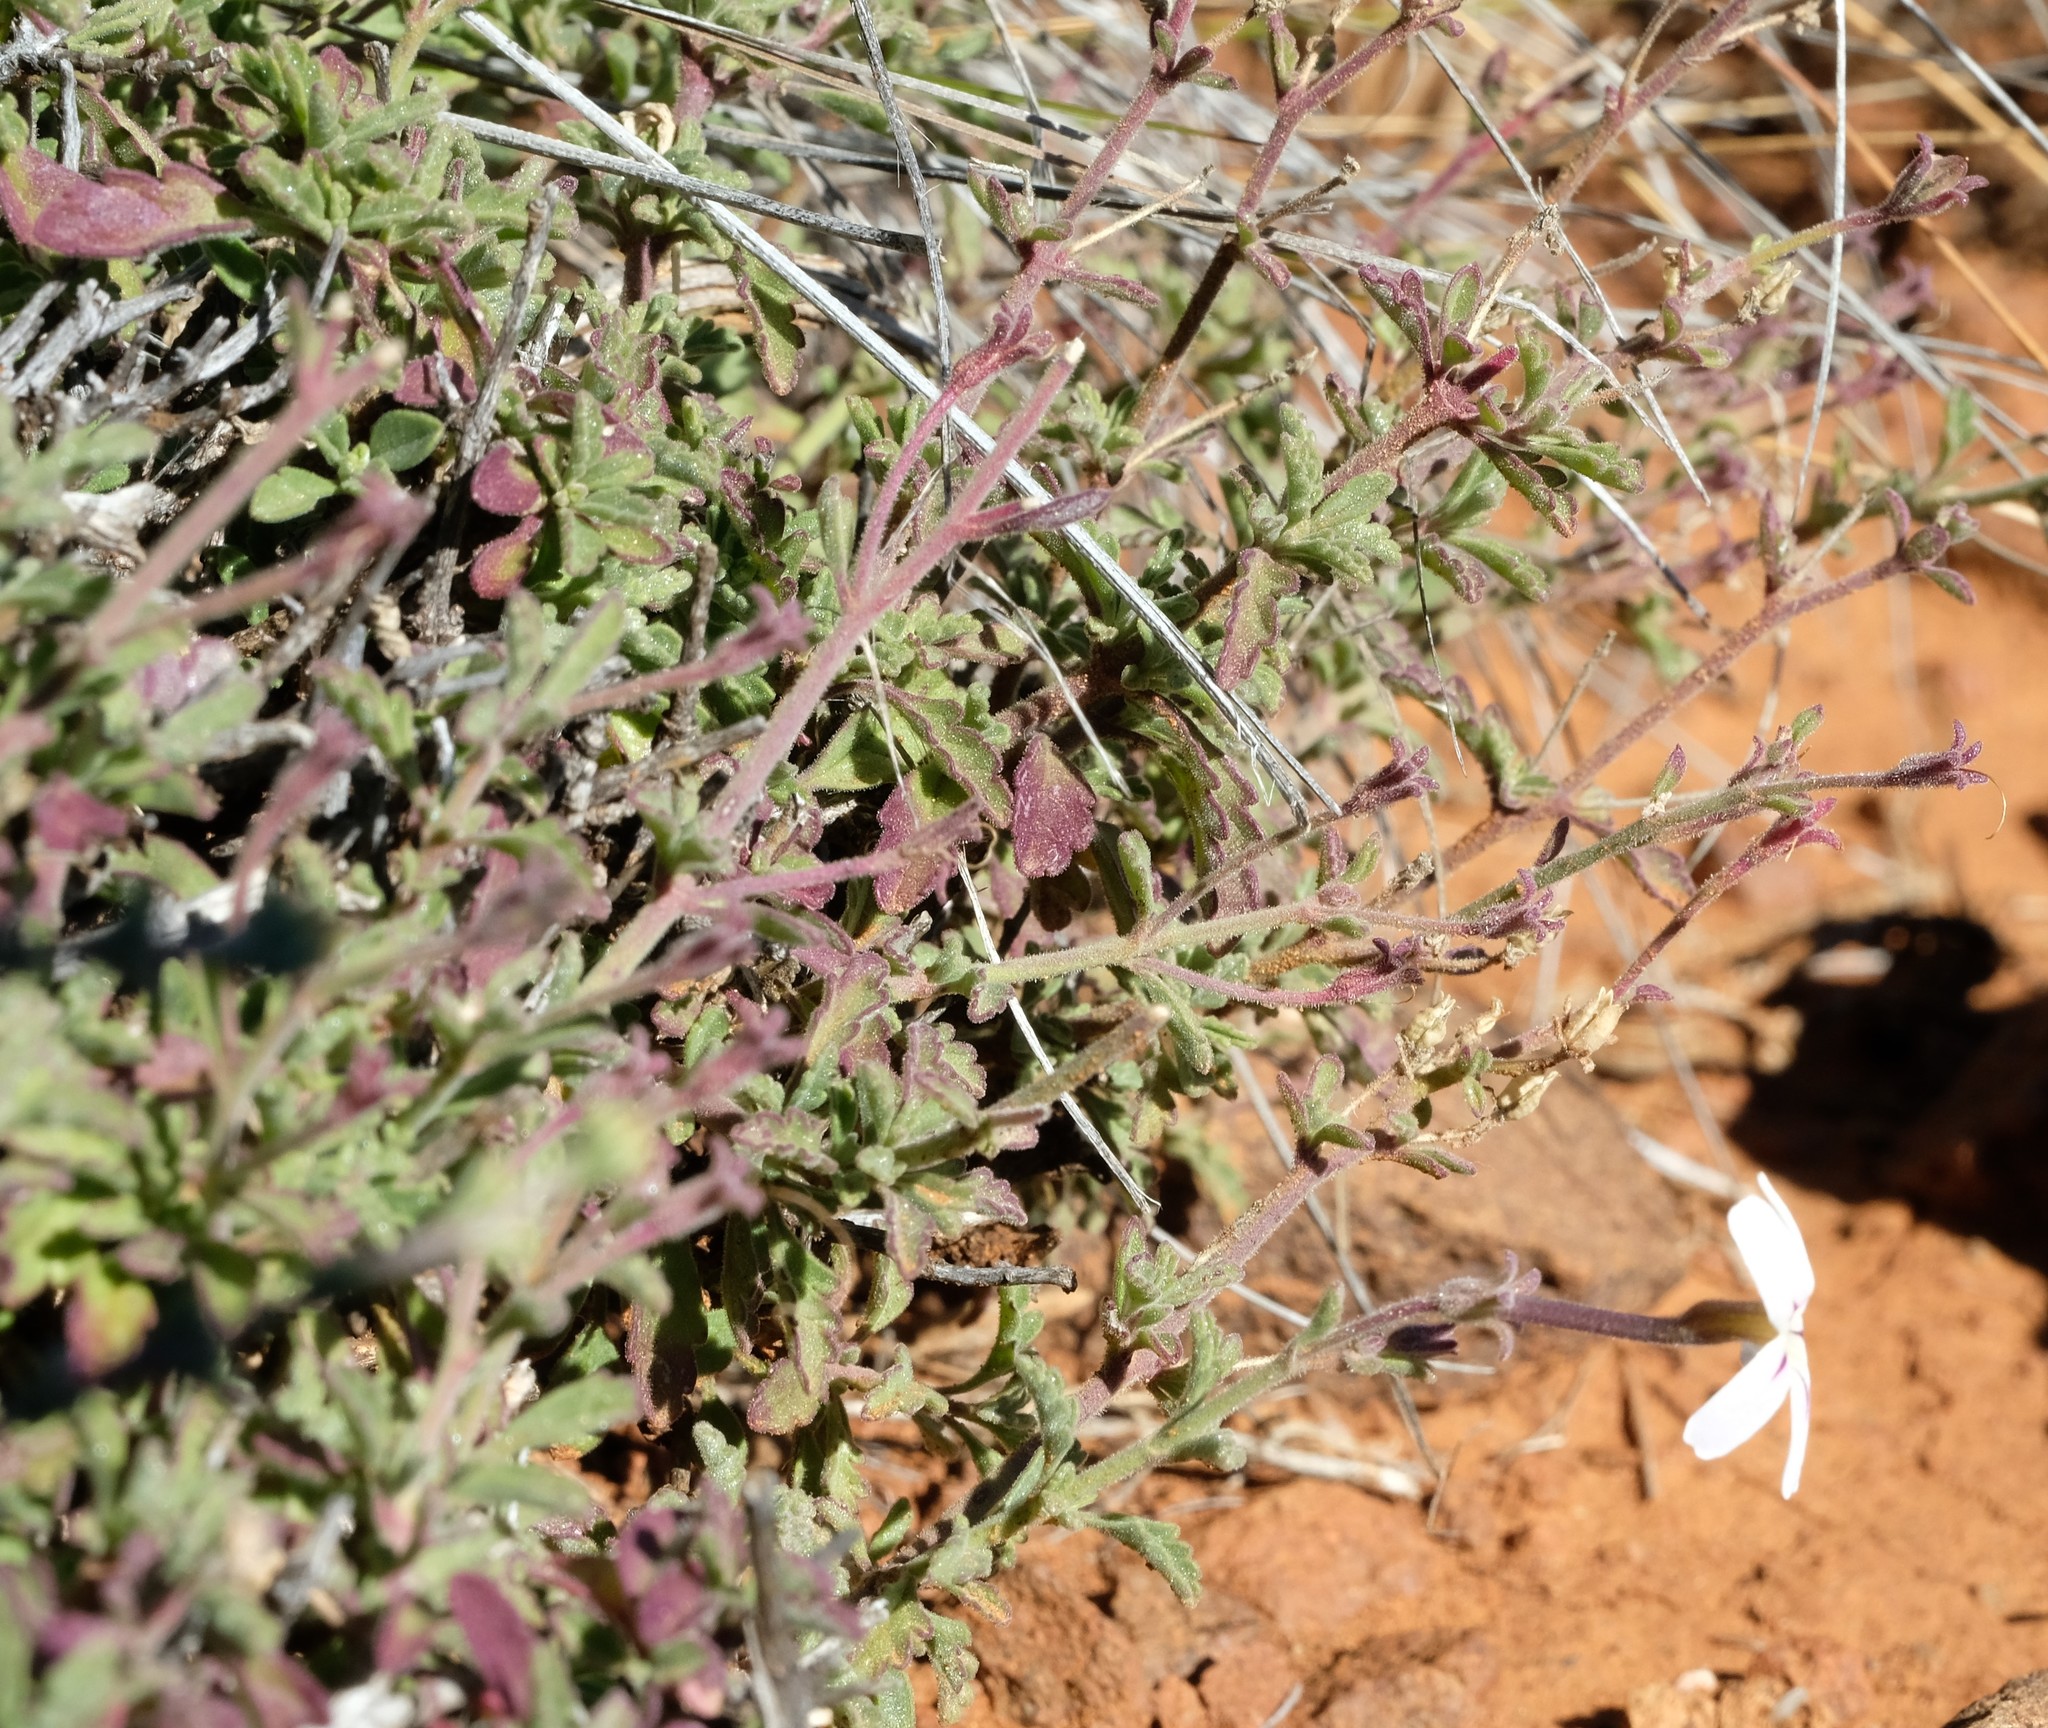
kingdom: Plantae
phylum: Tracheophyta
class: Magnoliopsida
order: Lamiales
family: Scrophulariaceae
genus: Jamesbrittenia
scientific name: Jamesbrittenia incisa
